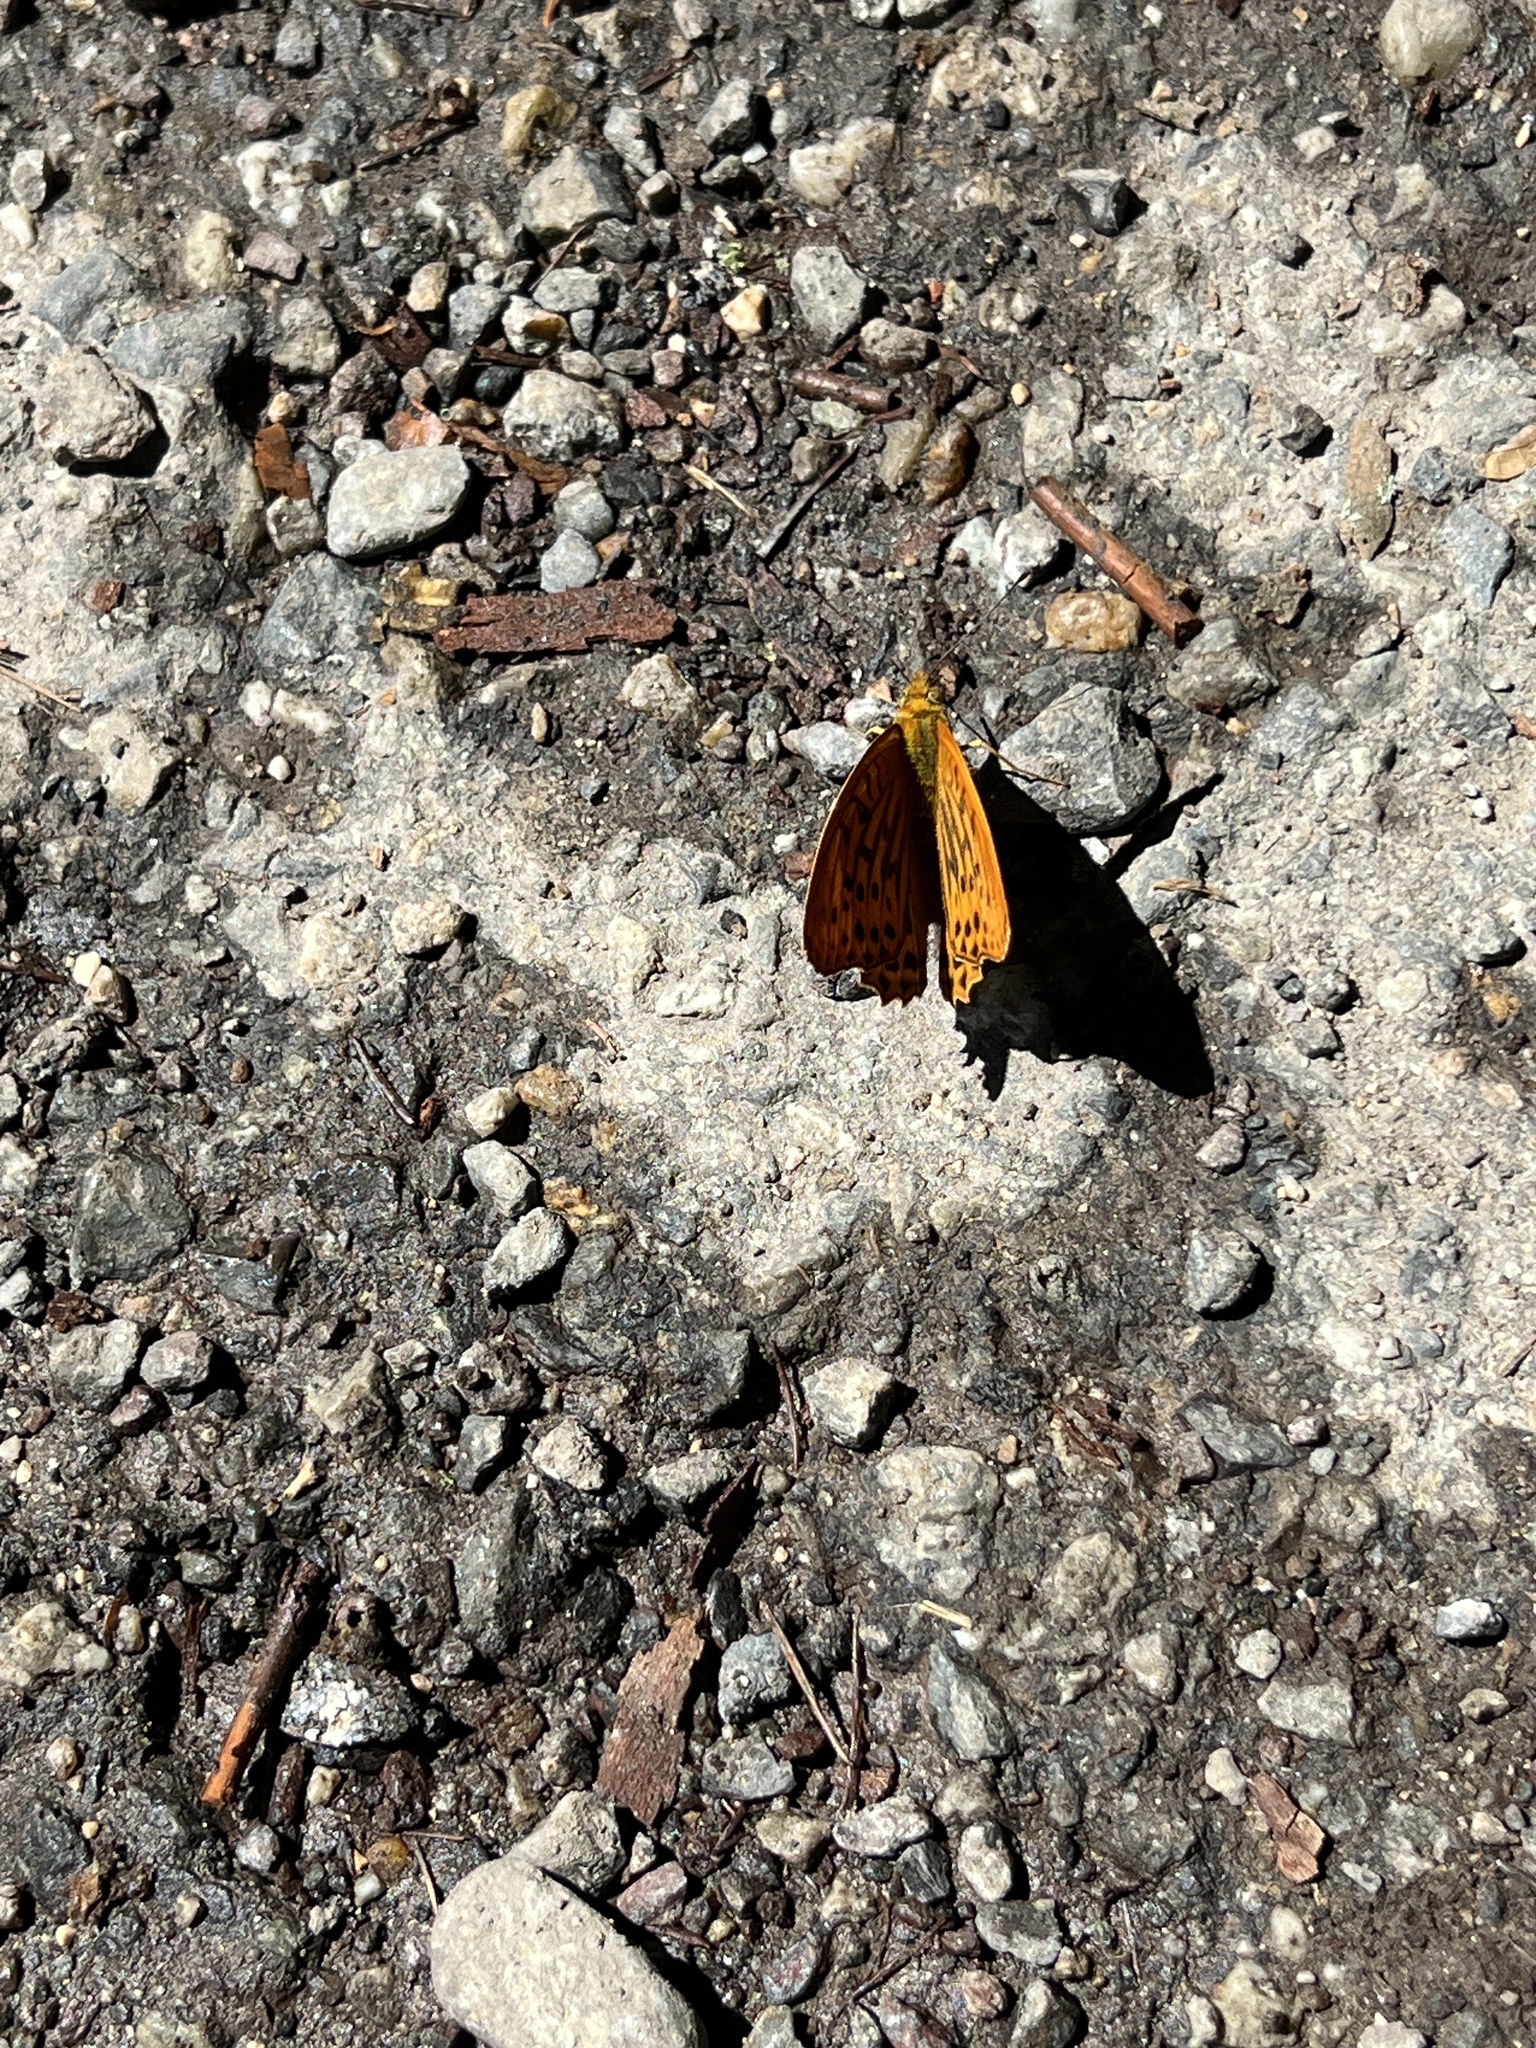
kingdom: Animalia
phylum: Arthropoda
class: Insecta
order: Lepidoptera
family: Nymphalidae
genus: Argynnis
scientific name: Argynnis paphia
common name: Silver-washed fritillary
